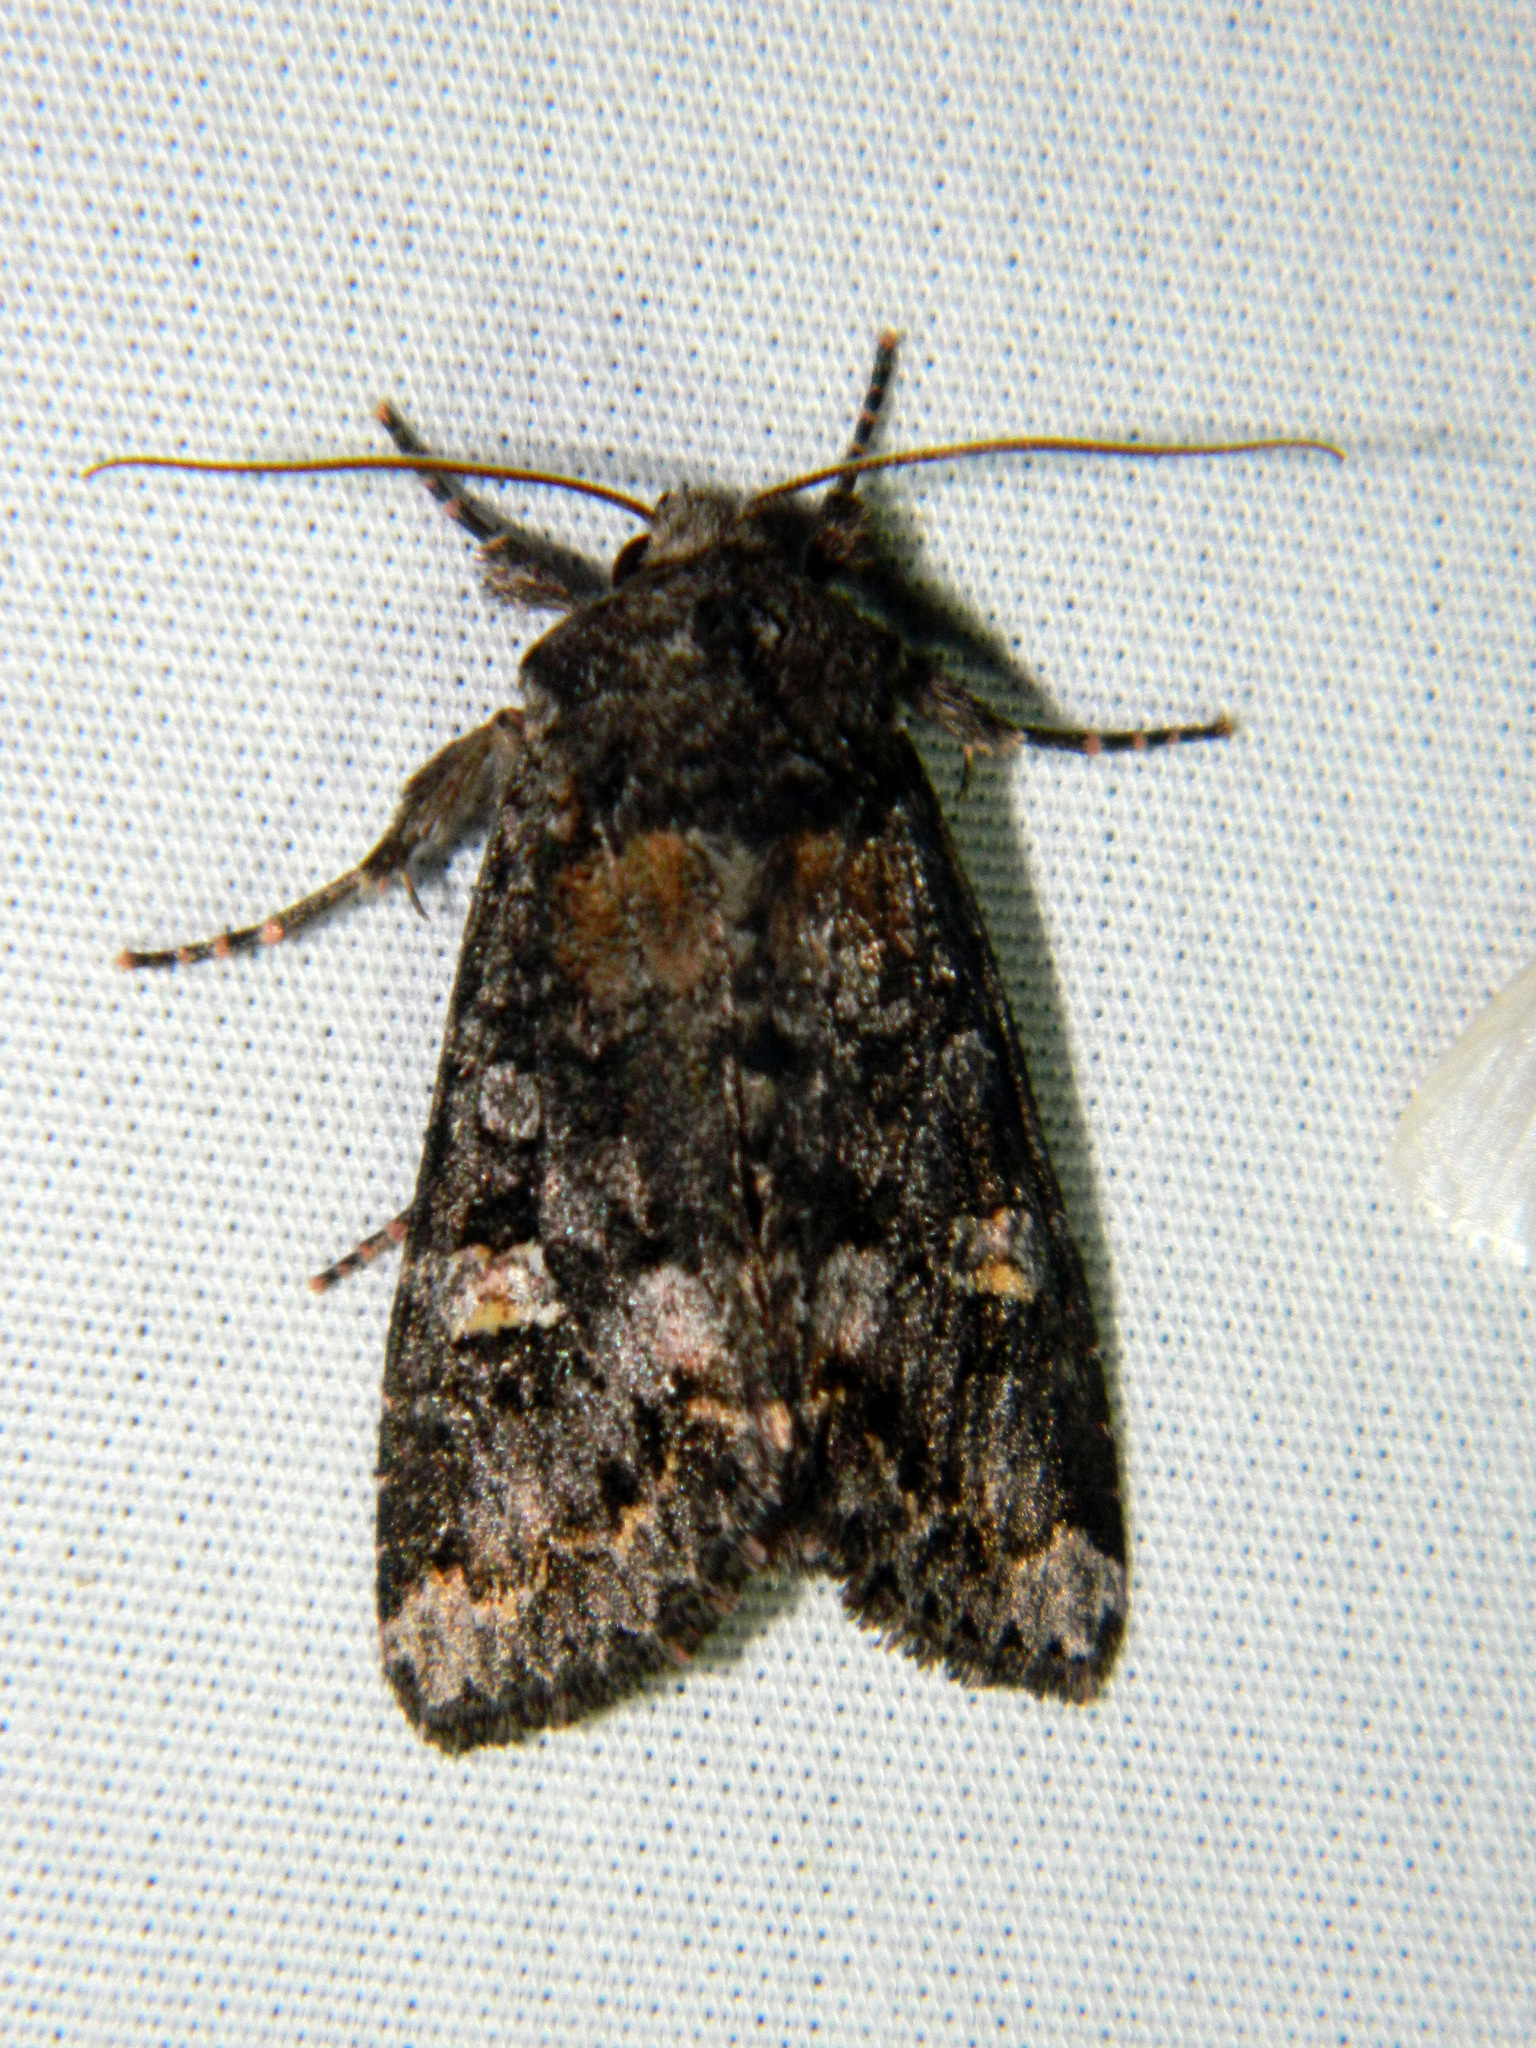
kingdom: Animalia
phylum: Arthropoda
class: Insecta
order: Lepidoptera
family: Noctuidae
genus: Spiramater
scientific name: Spiramater lutra
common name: Otter spiramater moth
